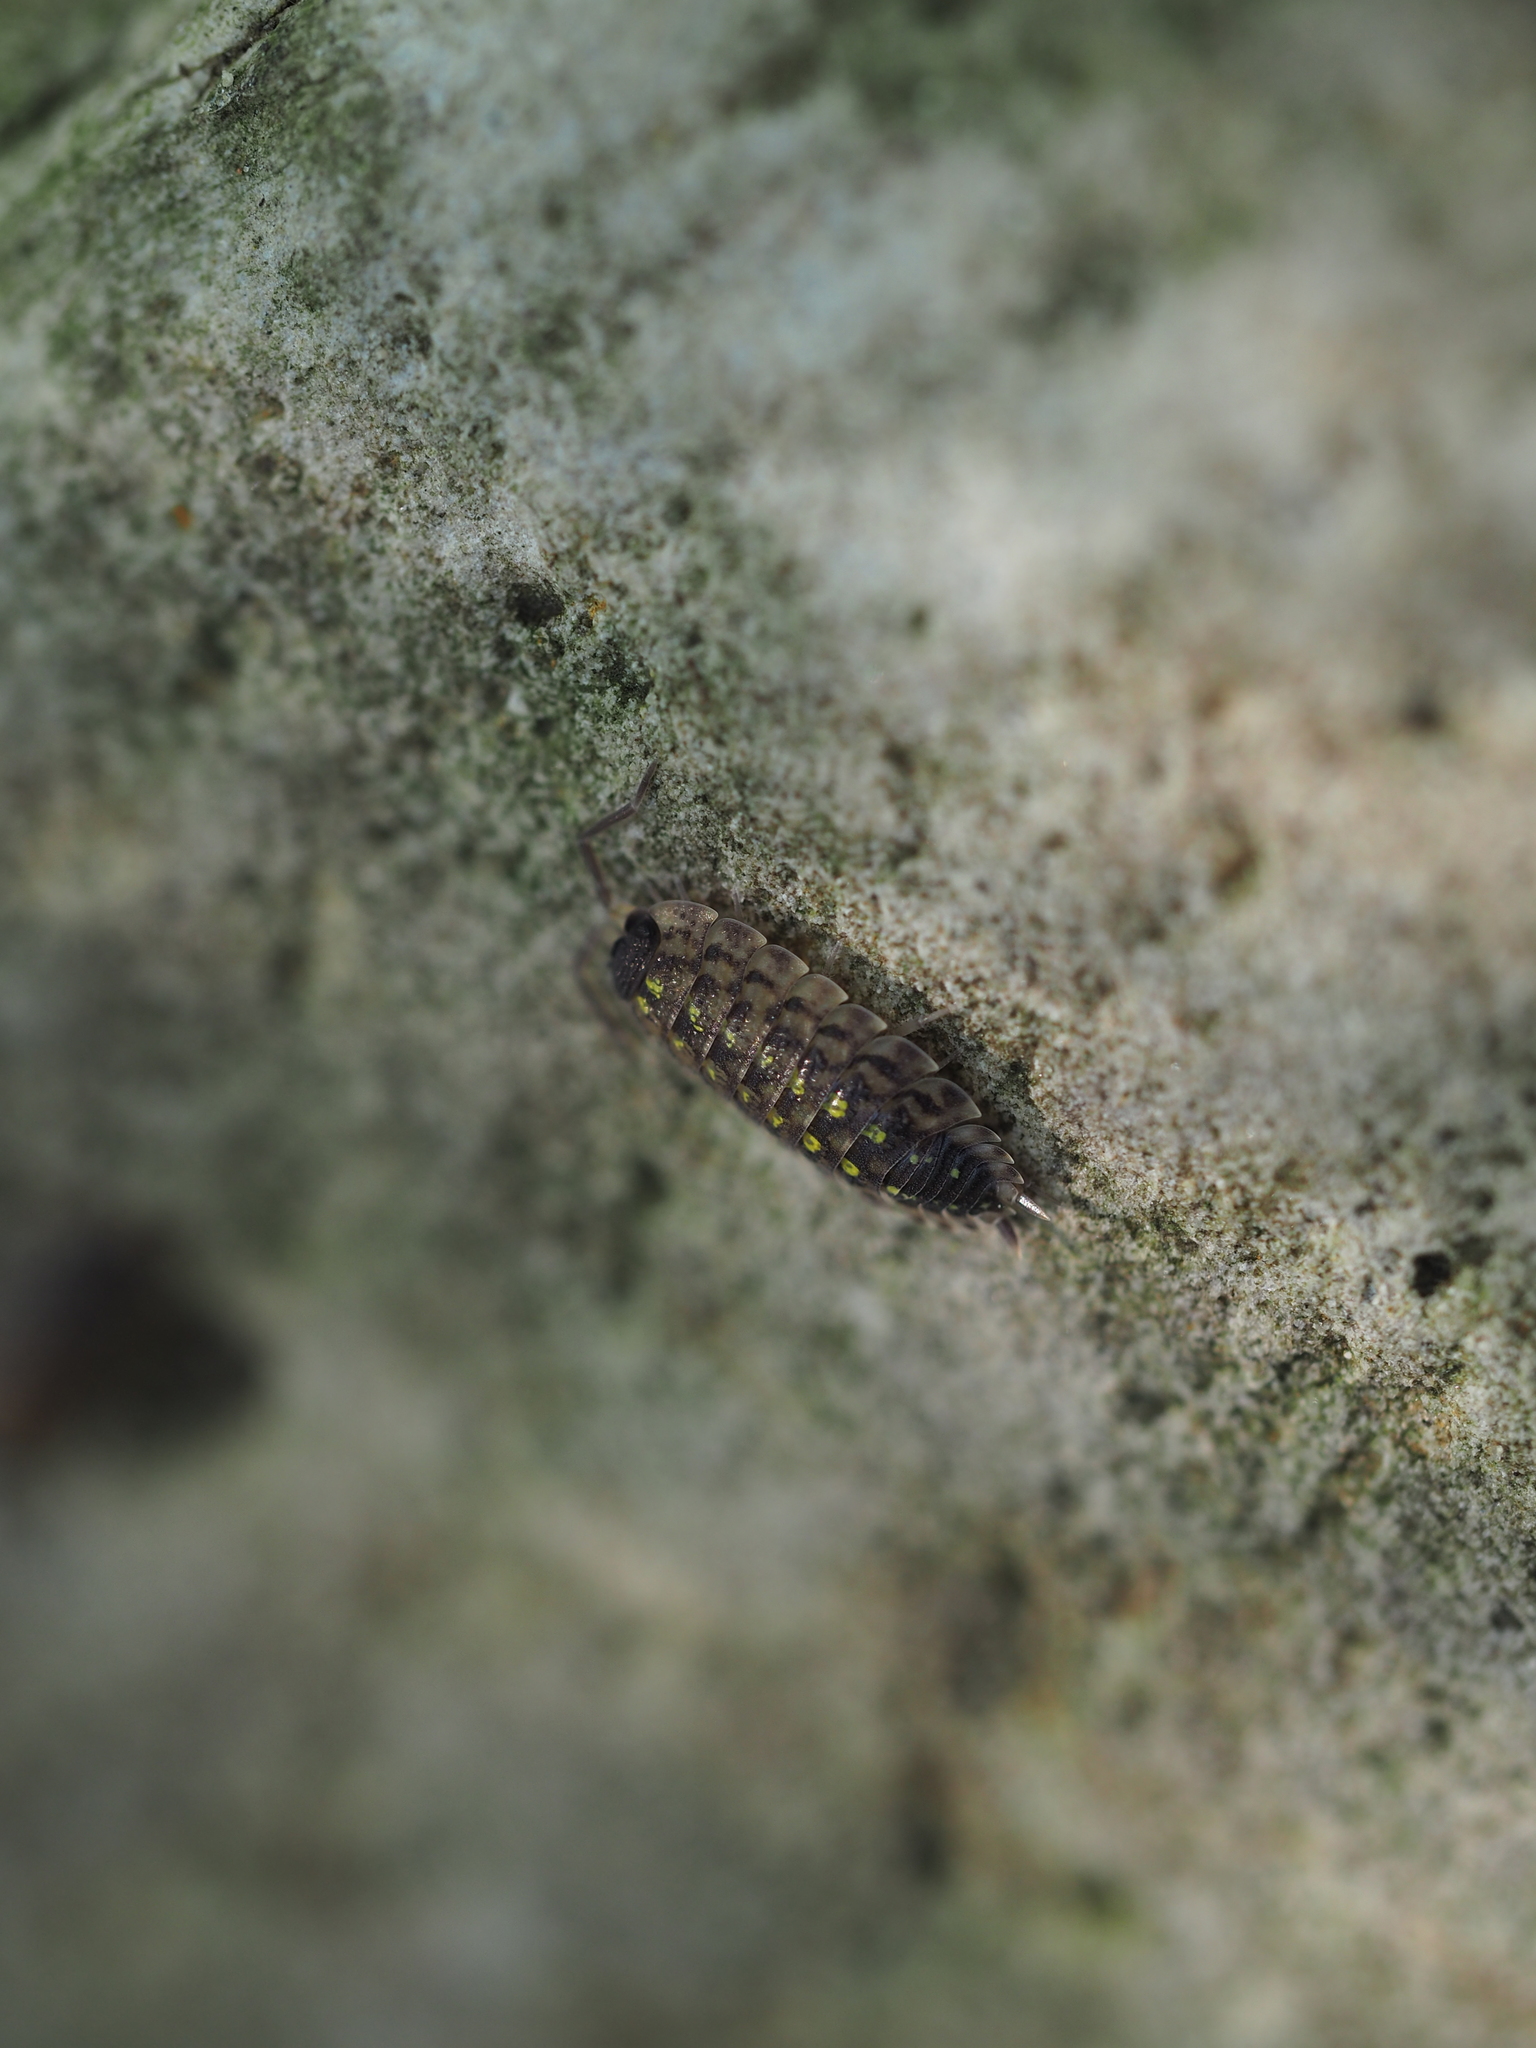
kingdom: Animalia
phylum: Arthropoda
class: Malacostraca
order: Isopoda
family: Porcellionidae
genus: Porcellio
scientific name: Porcellio spinicornis
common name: Painted woodlouse
